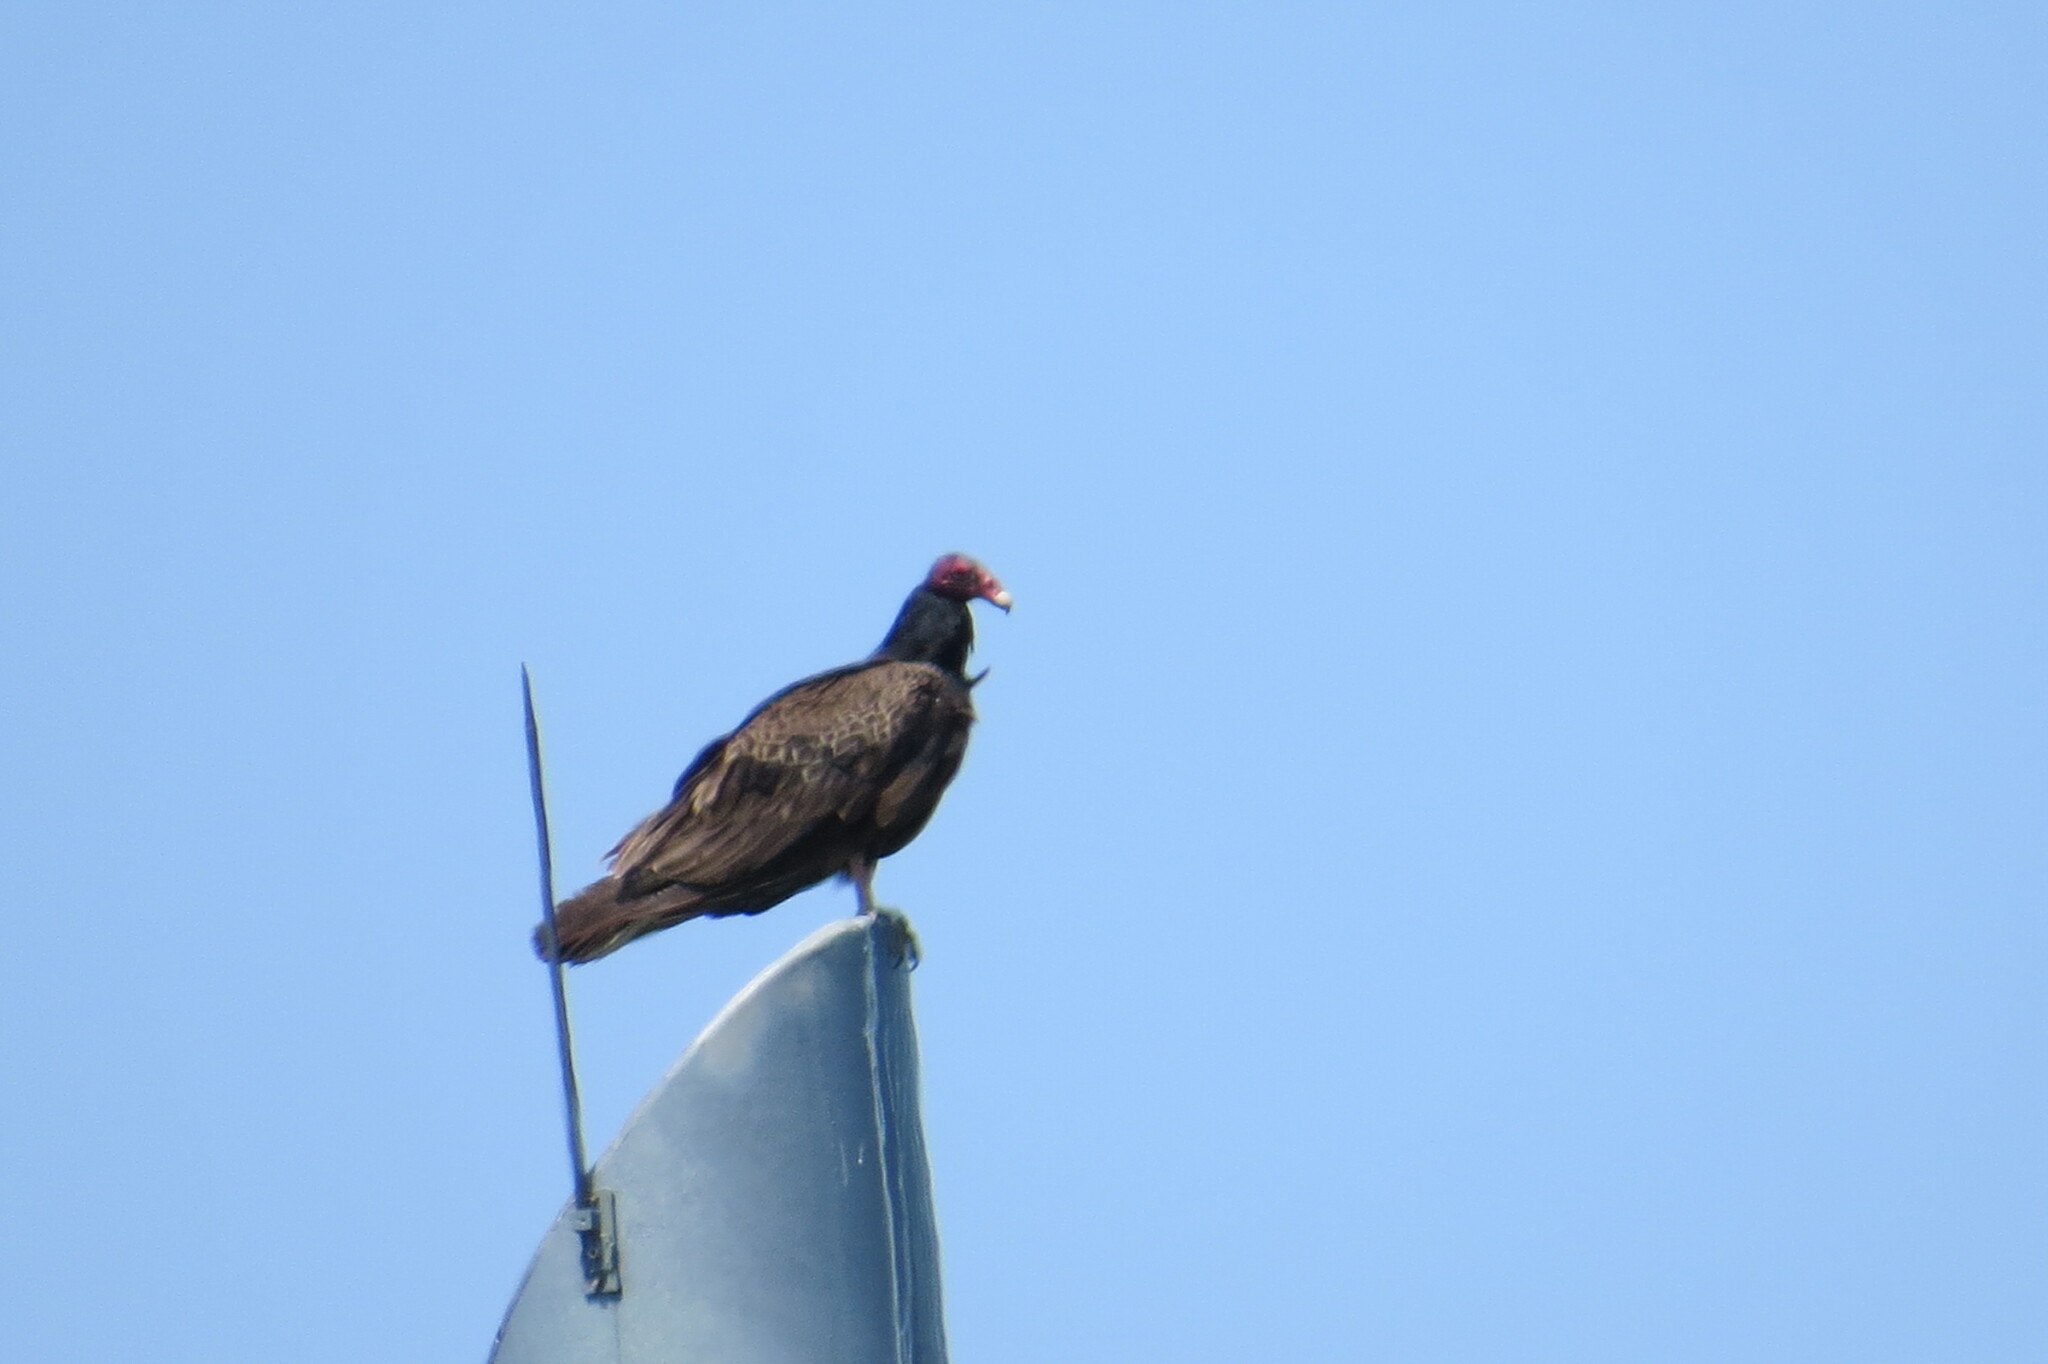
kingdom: Animalia
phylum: Chordata
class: Aves
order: Accipitriformes
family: Cathartidae
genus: Cathartes
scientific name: Cathartes aura
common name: Turkey vulture
